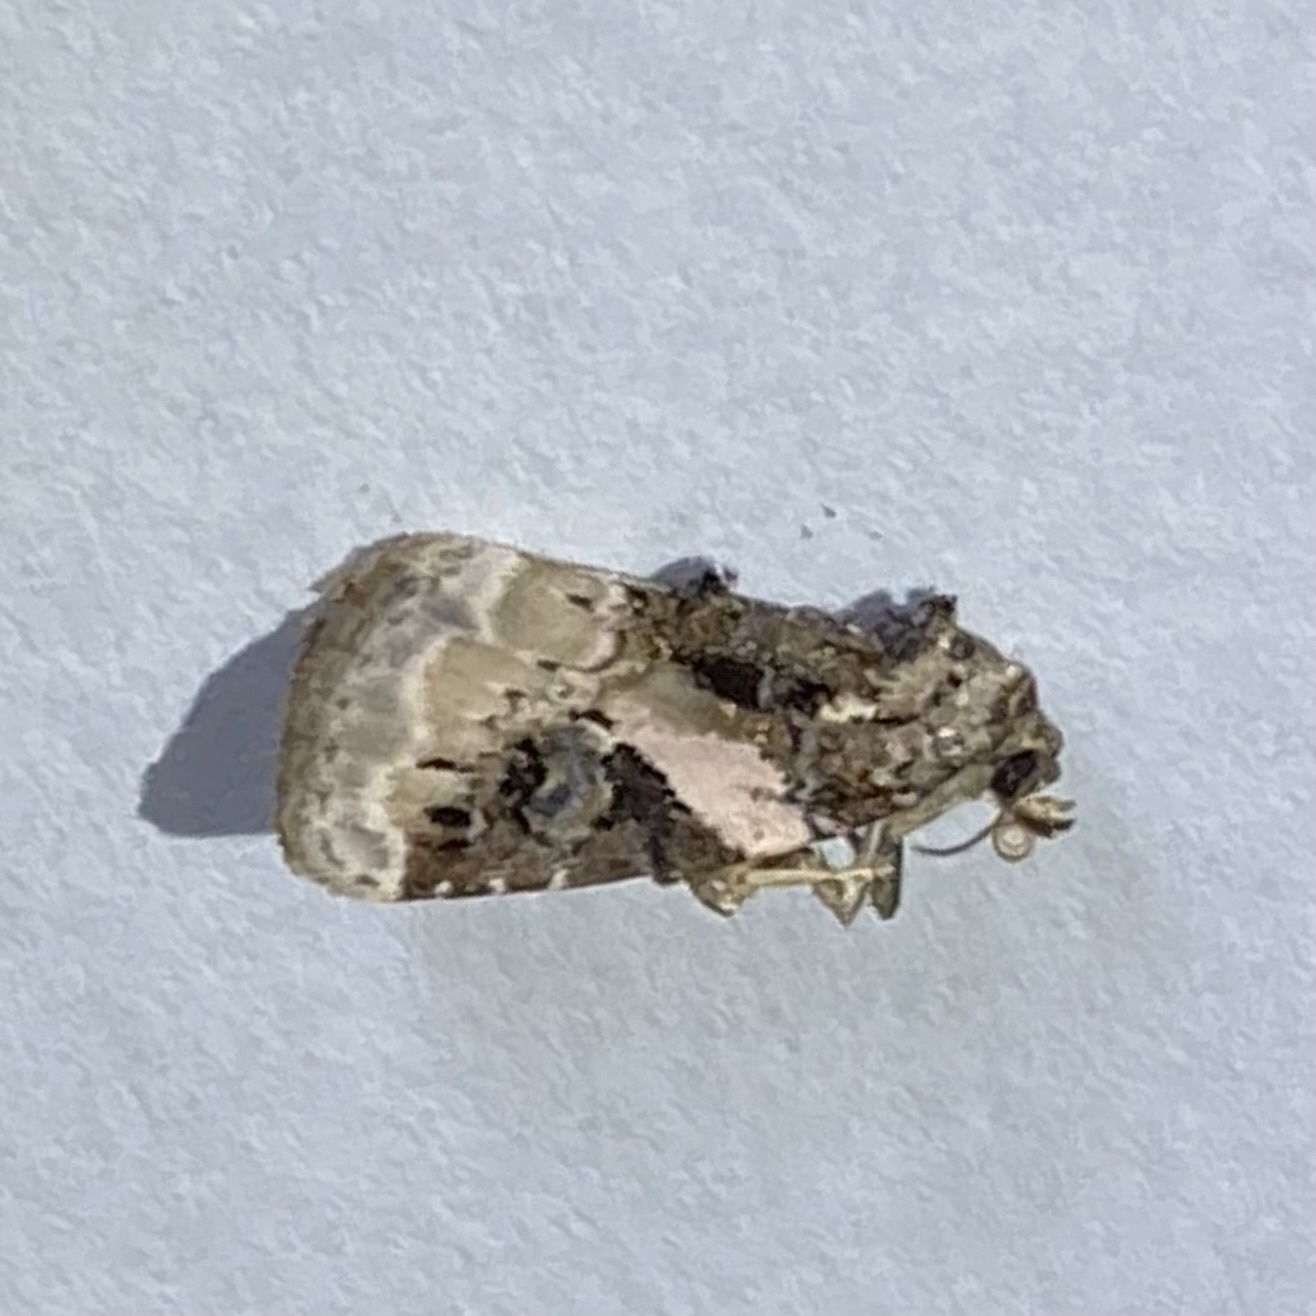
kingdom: Animalia
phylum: Arthropoda
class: Insecta
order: Lepidoptera
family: Noctuidae
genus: Pseudeustrotia
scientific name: Pseudeustrotia carneola
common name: Pink-barred lithacodia moth
